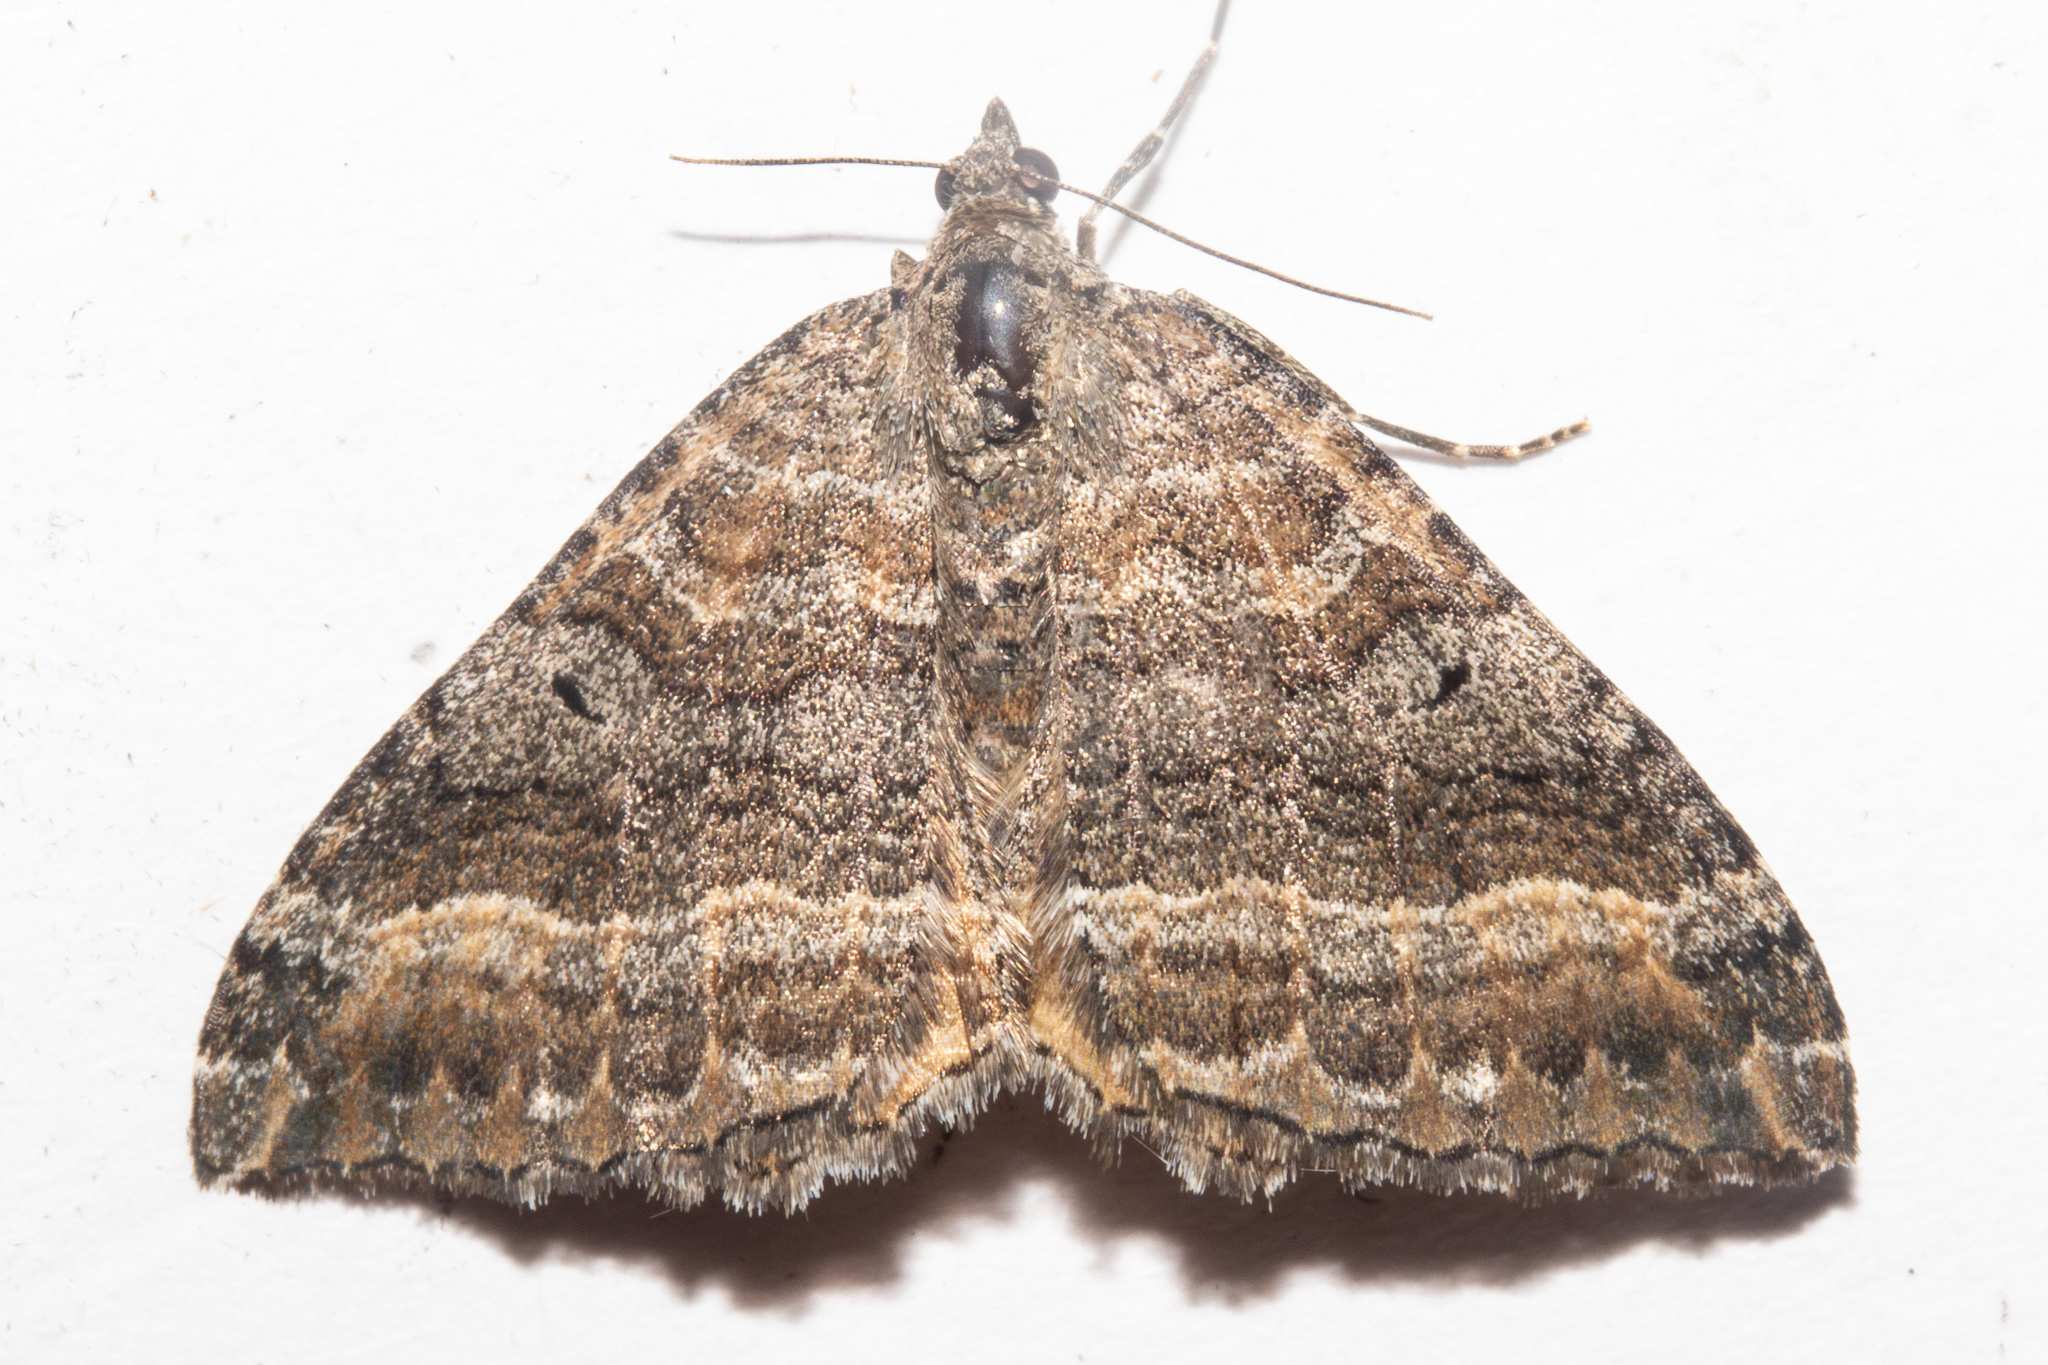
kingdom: Animalia
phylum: Arthropoda
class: Insecta
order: Lepidoptera
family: Geometridae
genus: Hydriomena
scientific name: Hydriomena deltoidata
